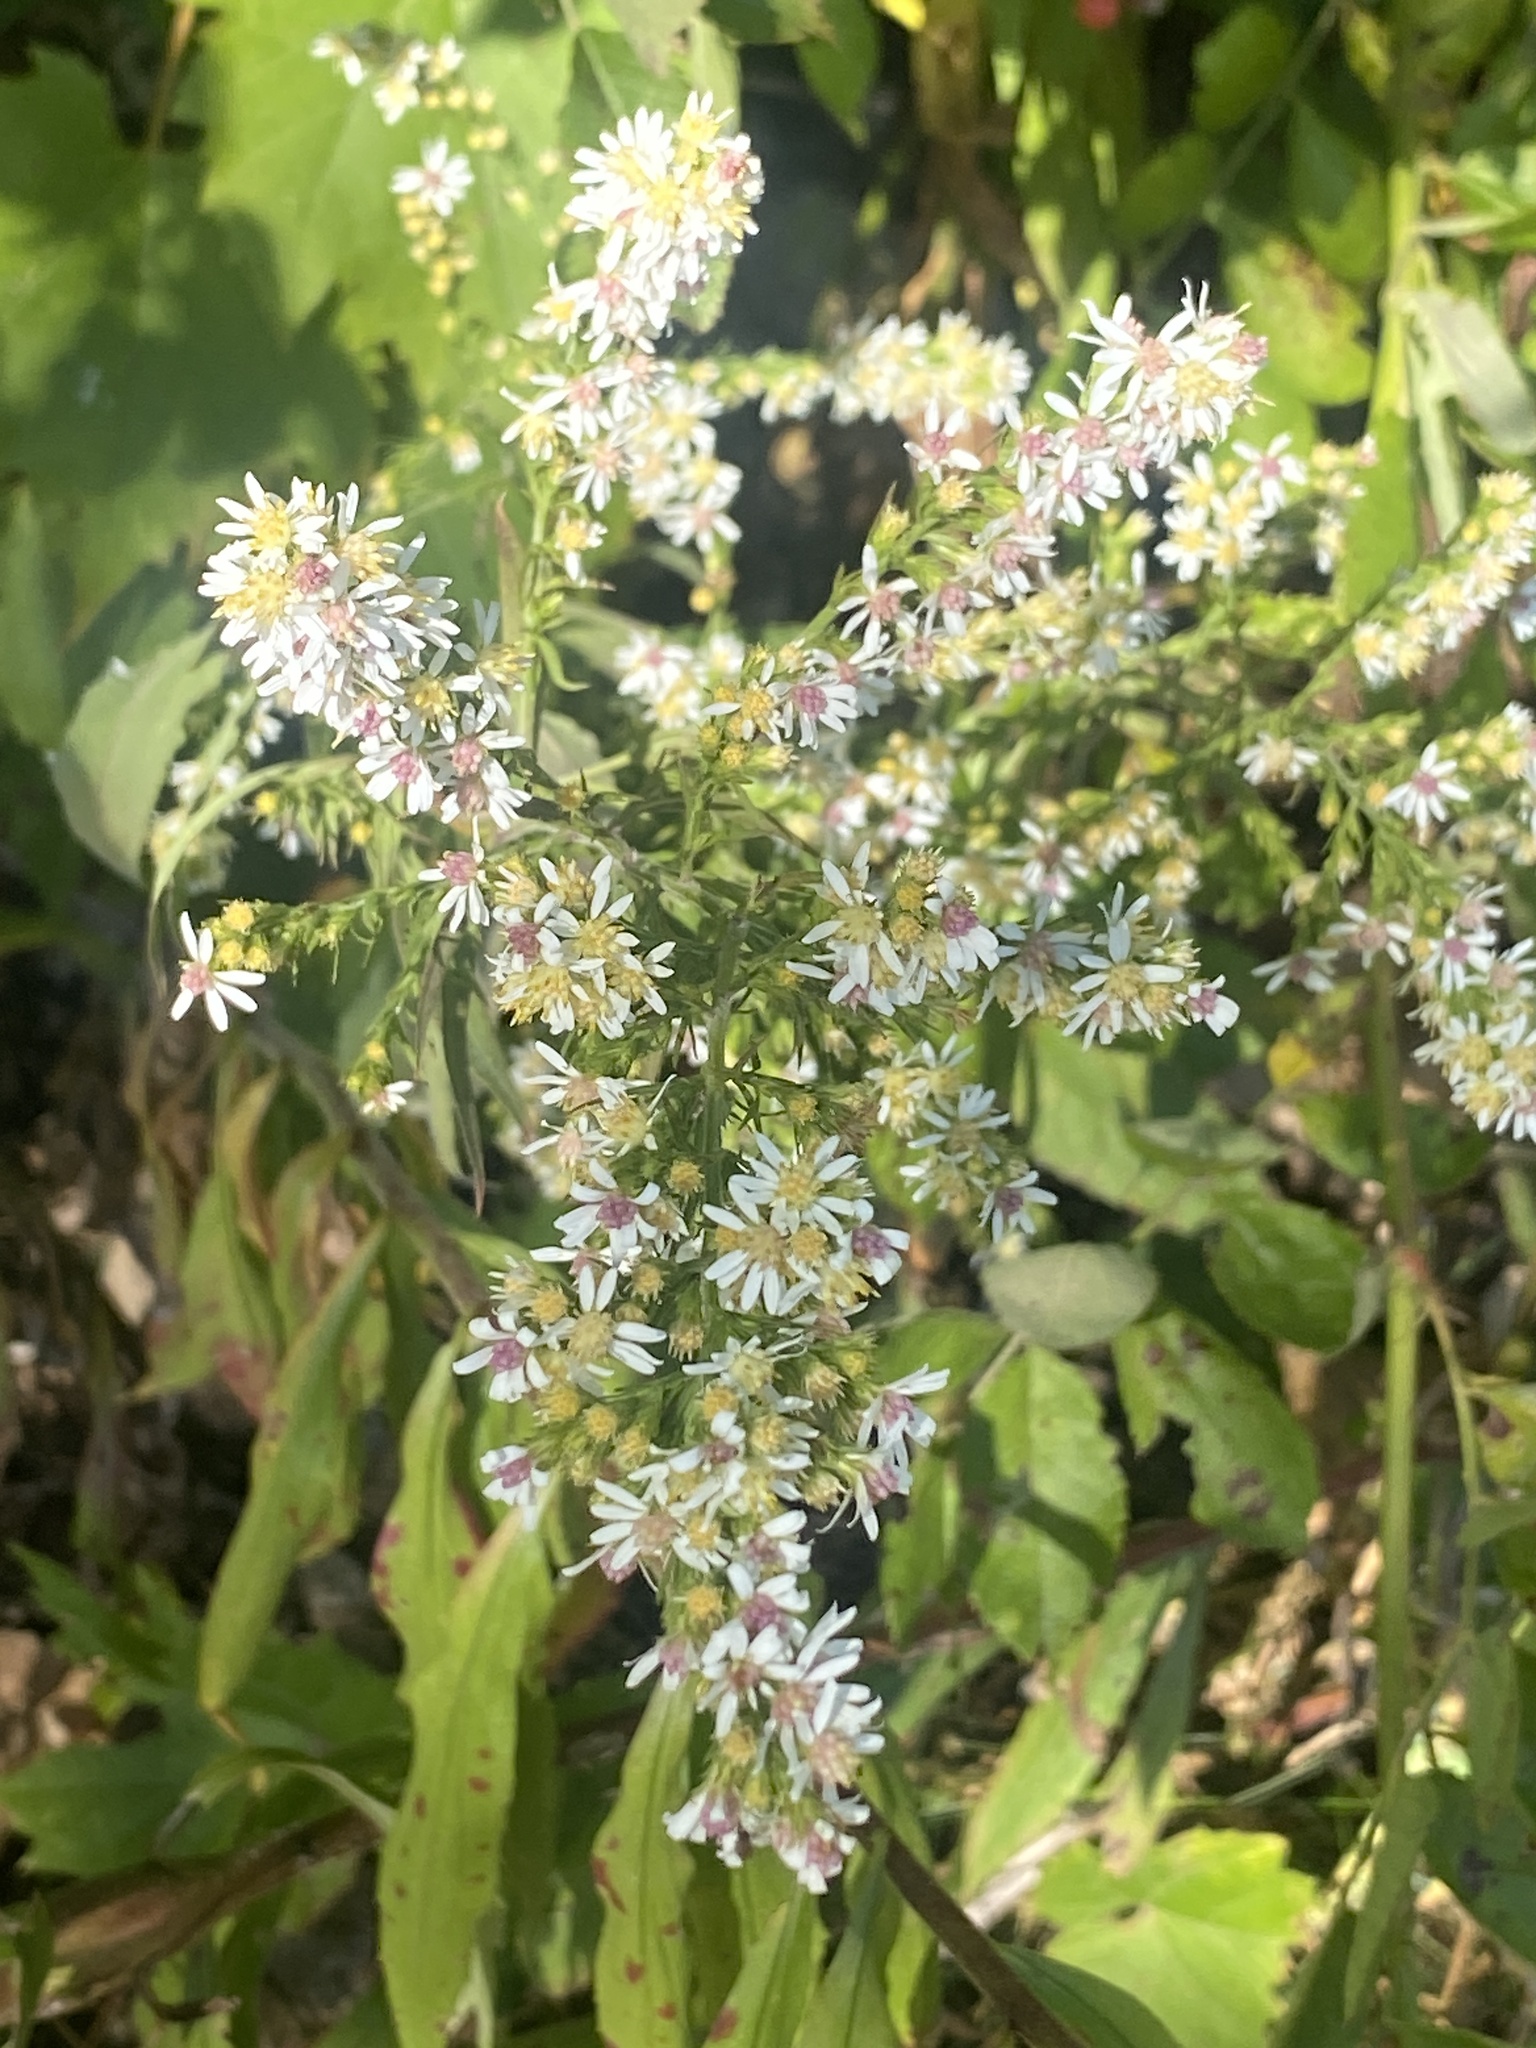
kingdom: Plantae
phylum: Tracheophyta
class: Magnoliopsida
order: Asterales
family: Asteraceae
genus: Symphyotrichum
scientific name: Symphyotrichum lateriflorum
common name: Calico aster
